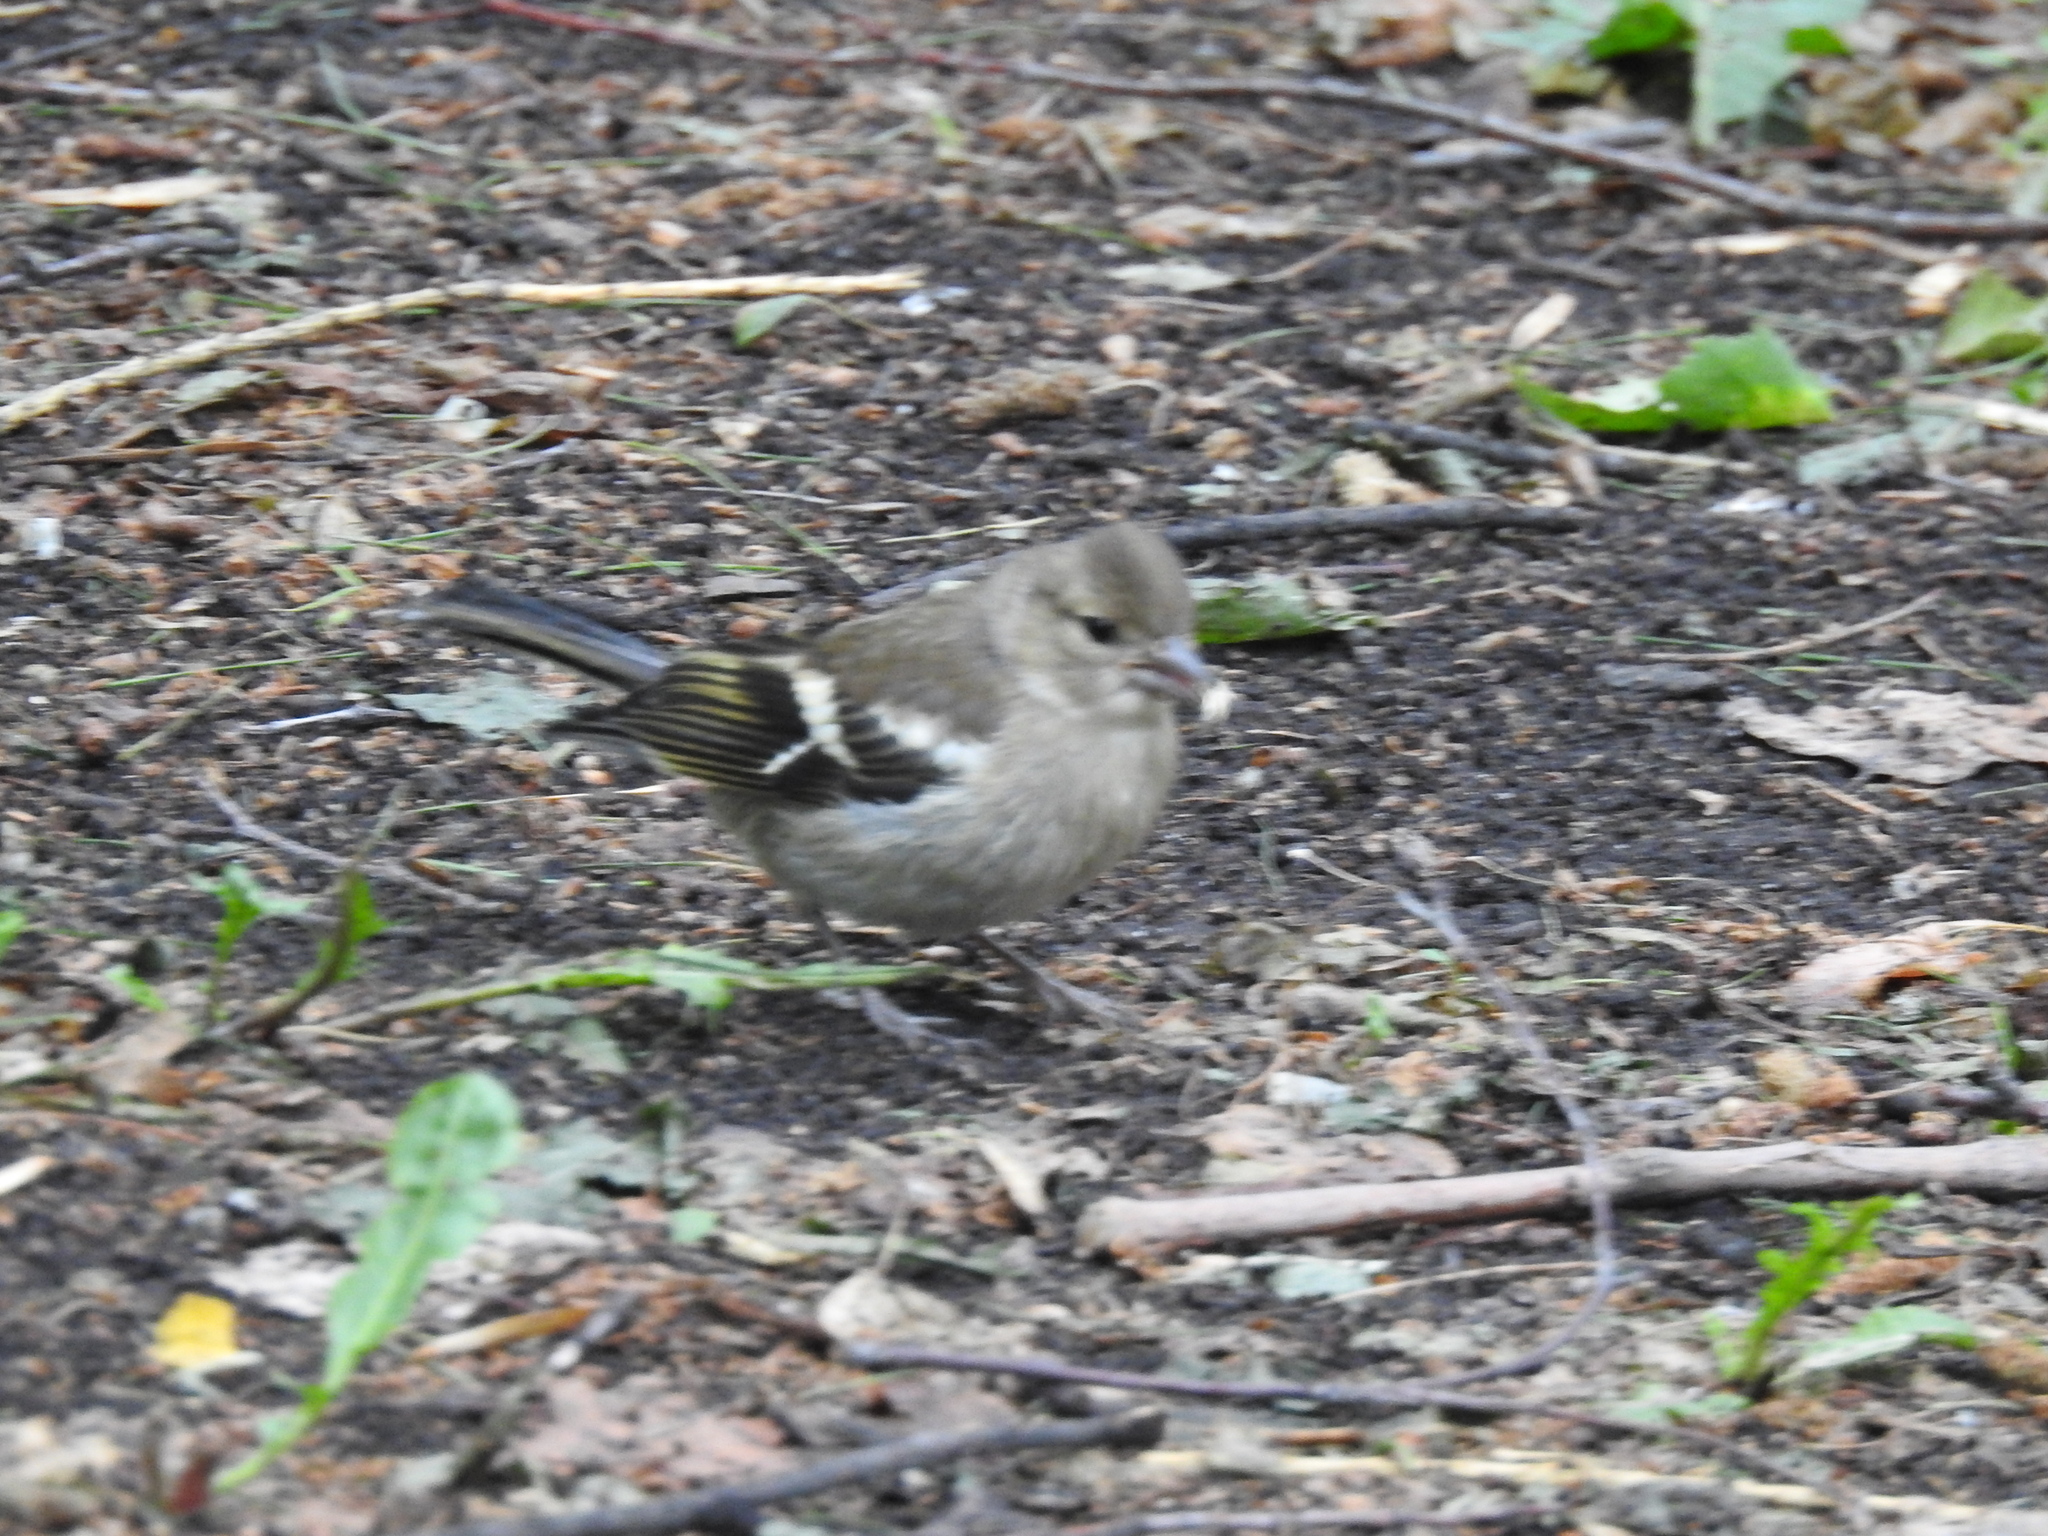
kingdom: Animalia
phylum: Chordata
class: Aves
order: Passeriformes
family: Fringillidae
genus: Fringilla
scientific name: Fringilla coelebs
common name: Common chaffinch
